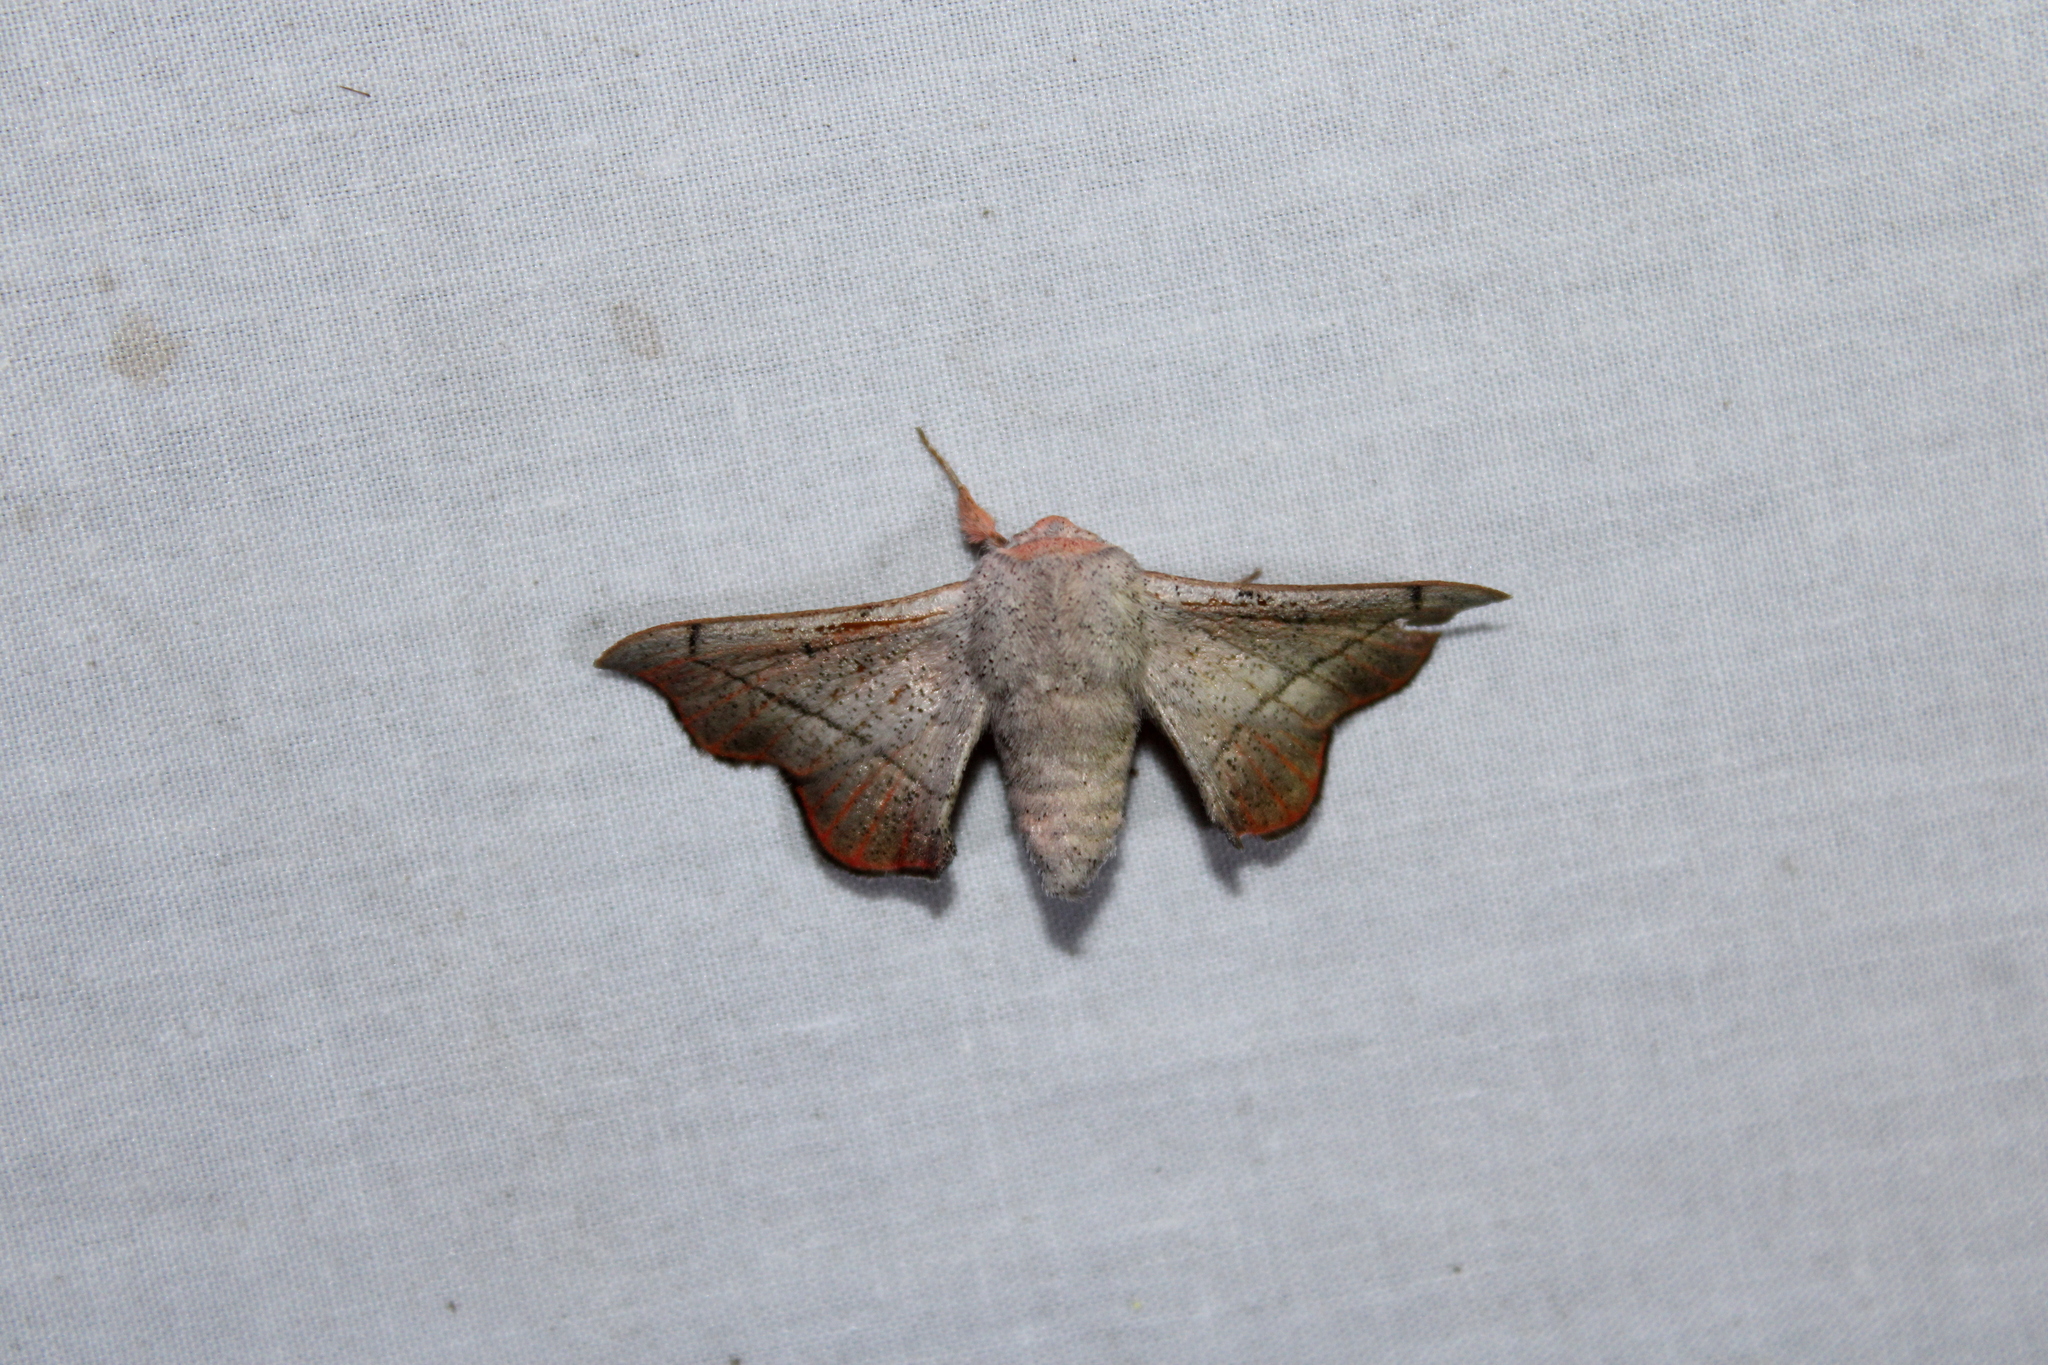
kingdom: Animalia
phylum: Arthropoda
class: Insecta
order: Lepidoptera
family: Mimallonidae
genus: Cicinnus
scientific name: Cicinnus melsheimeri
